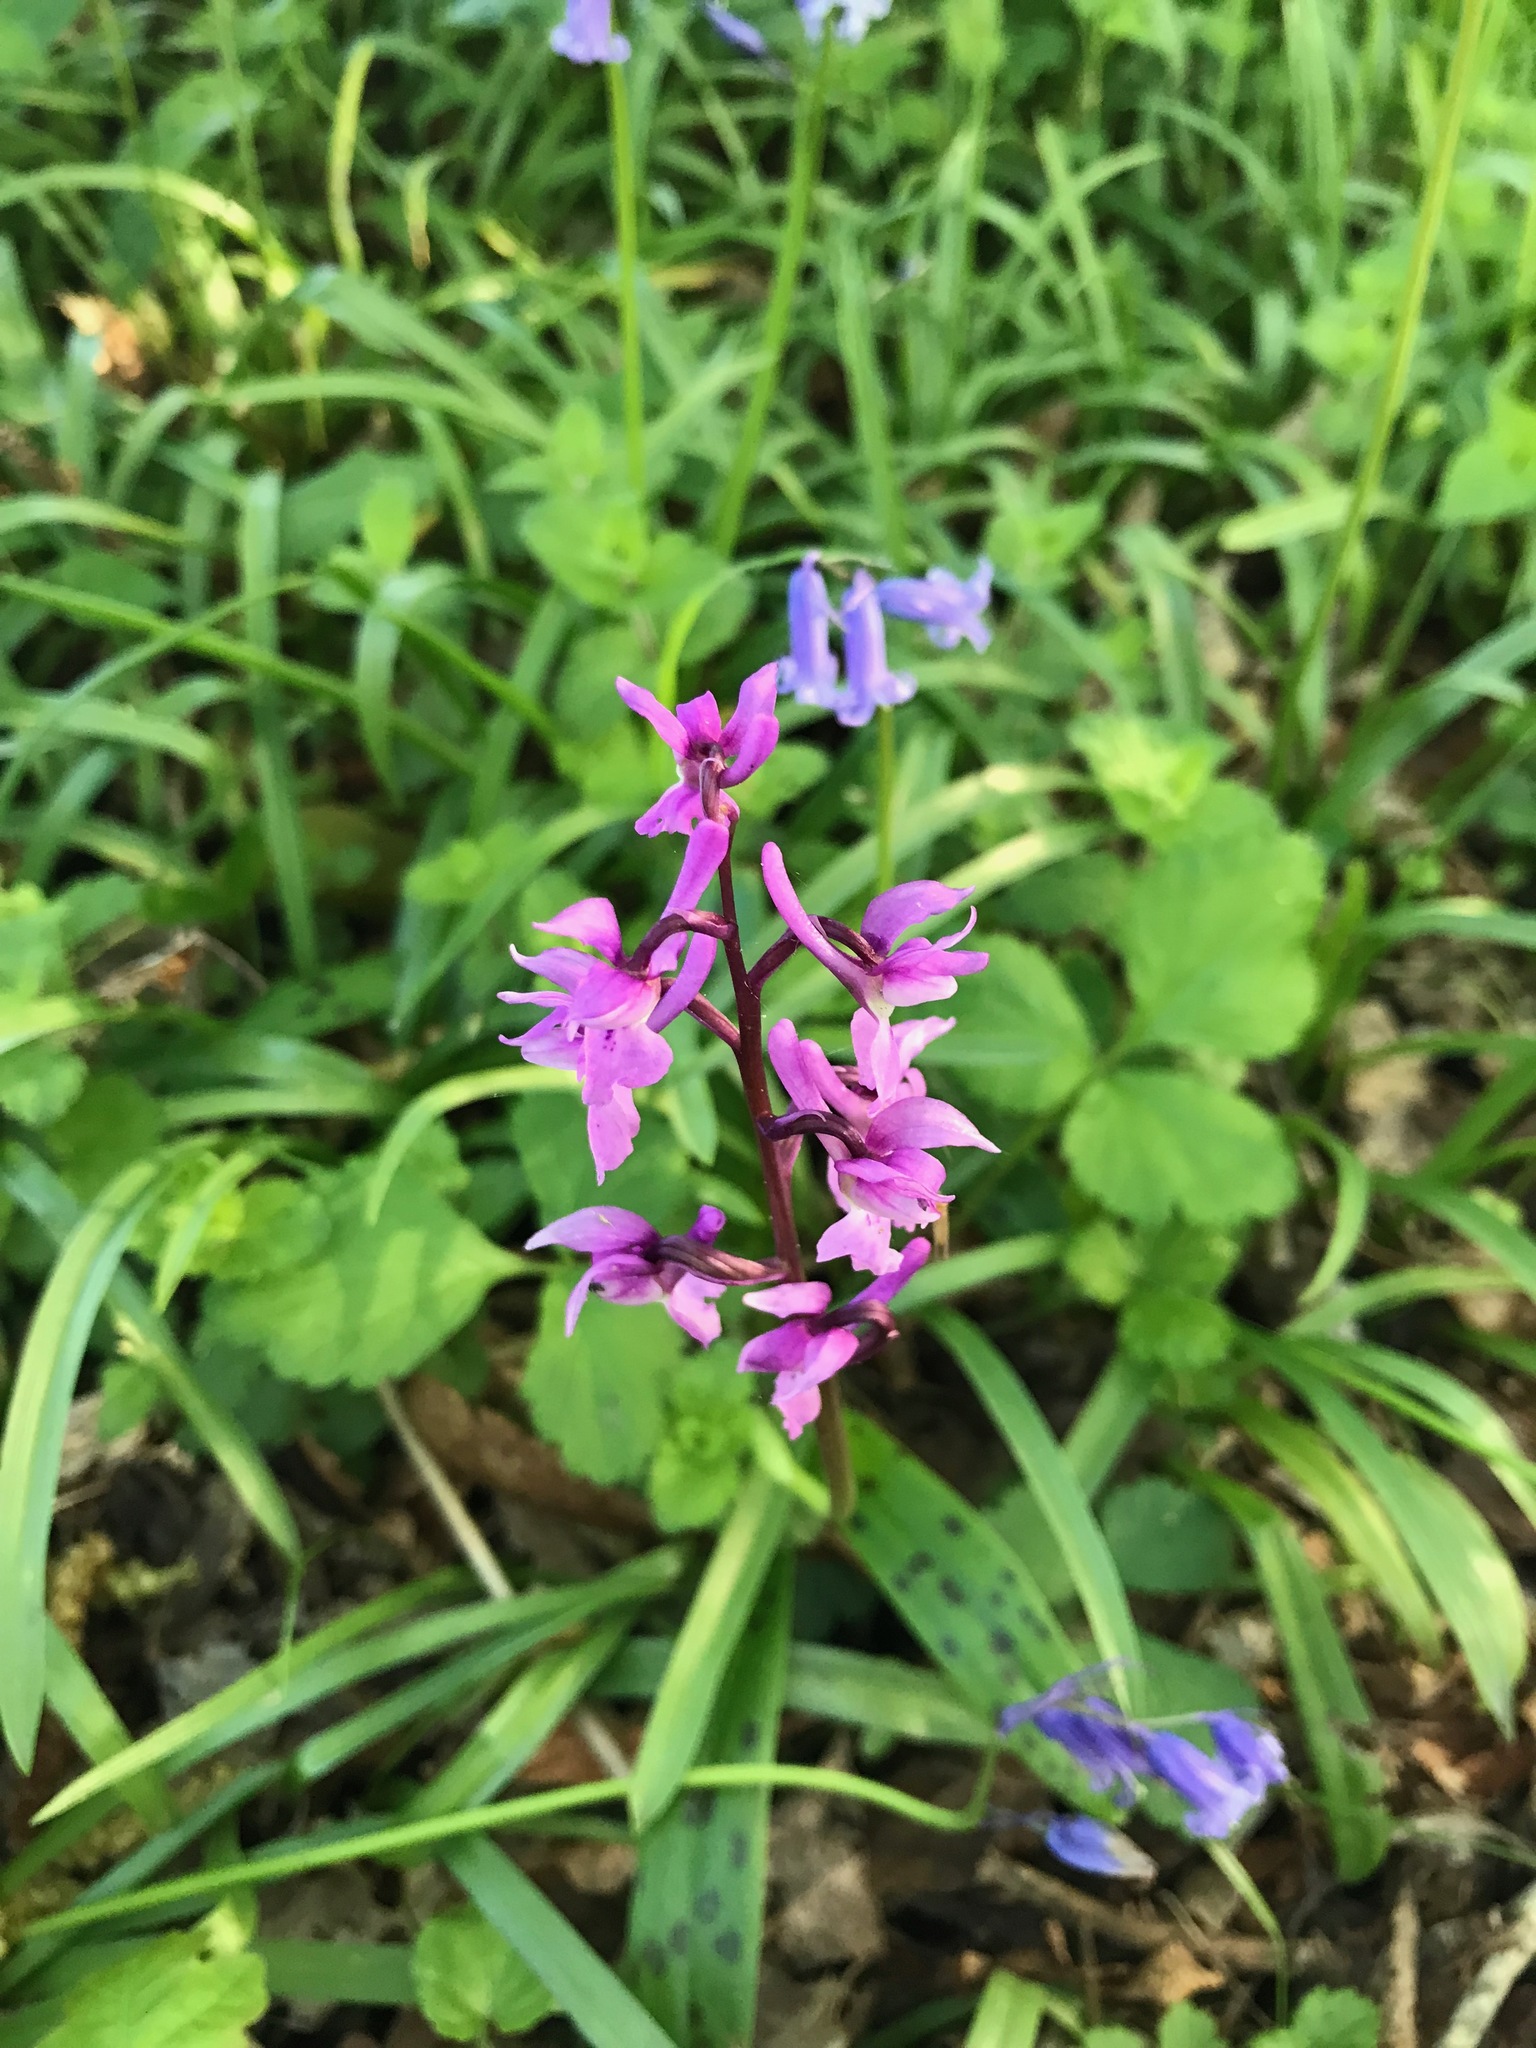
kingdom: Plantae
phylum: Tracheophyta
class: Liliopsida
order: Asparagales
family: Orchidaceae
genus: Orchis
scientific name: Orchis mascula
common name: Early-purple orchid
